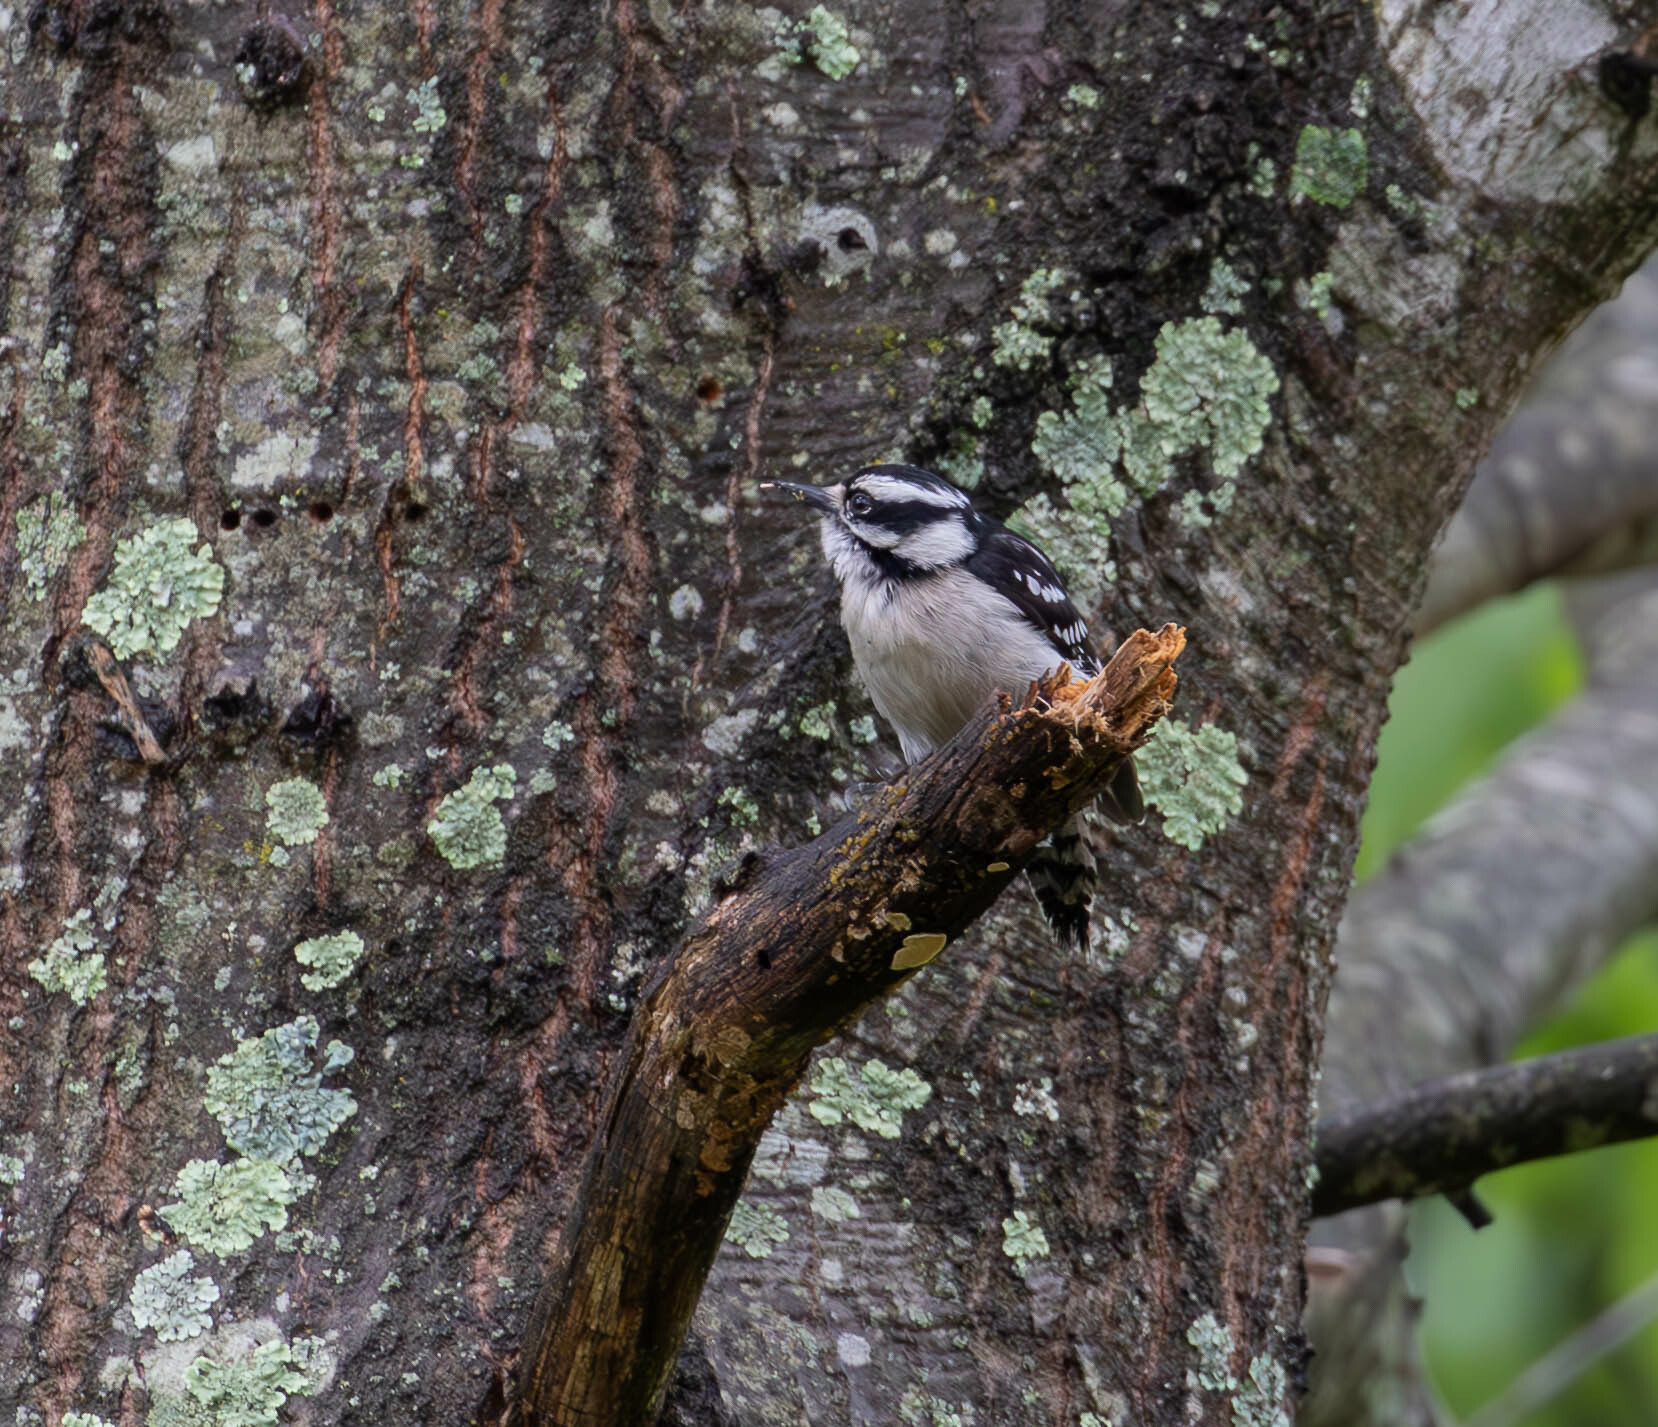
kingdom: Animalia
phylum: Chordata
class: Aves
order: Piciformes
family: Picidae
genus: Dryobates
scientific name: Dryobates pubescens
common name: Downy woodpecker
